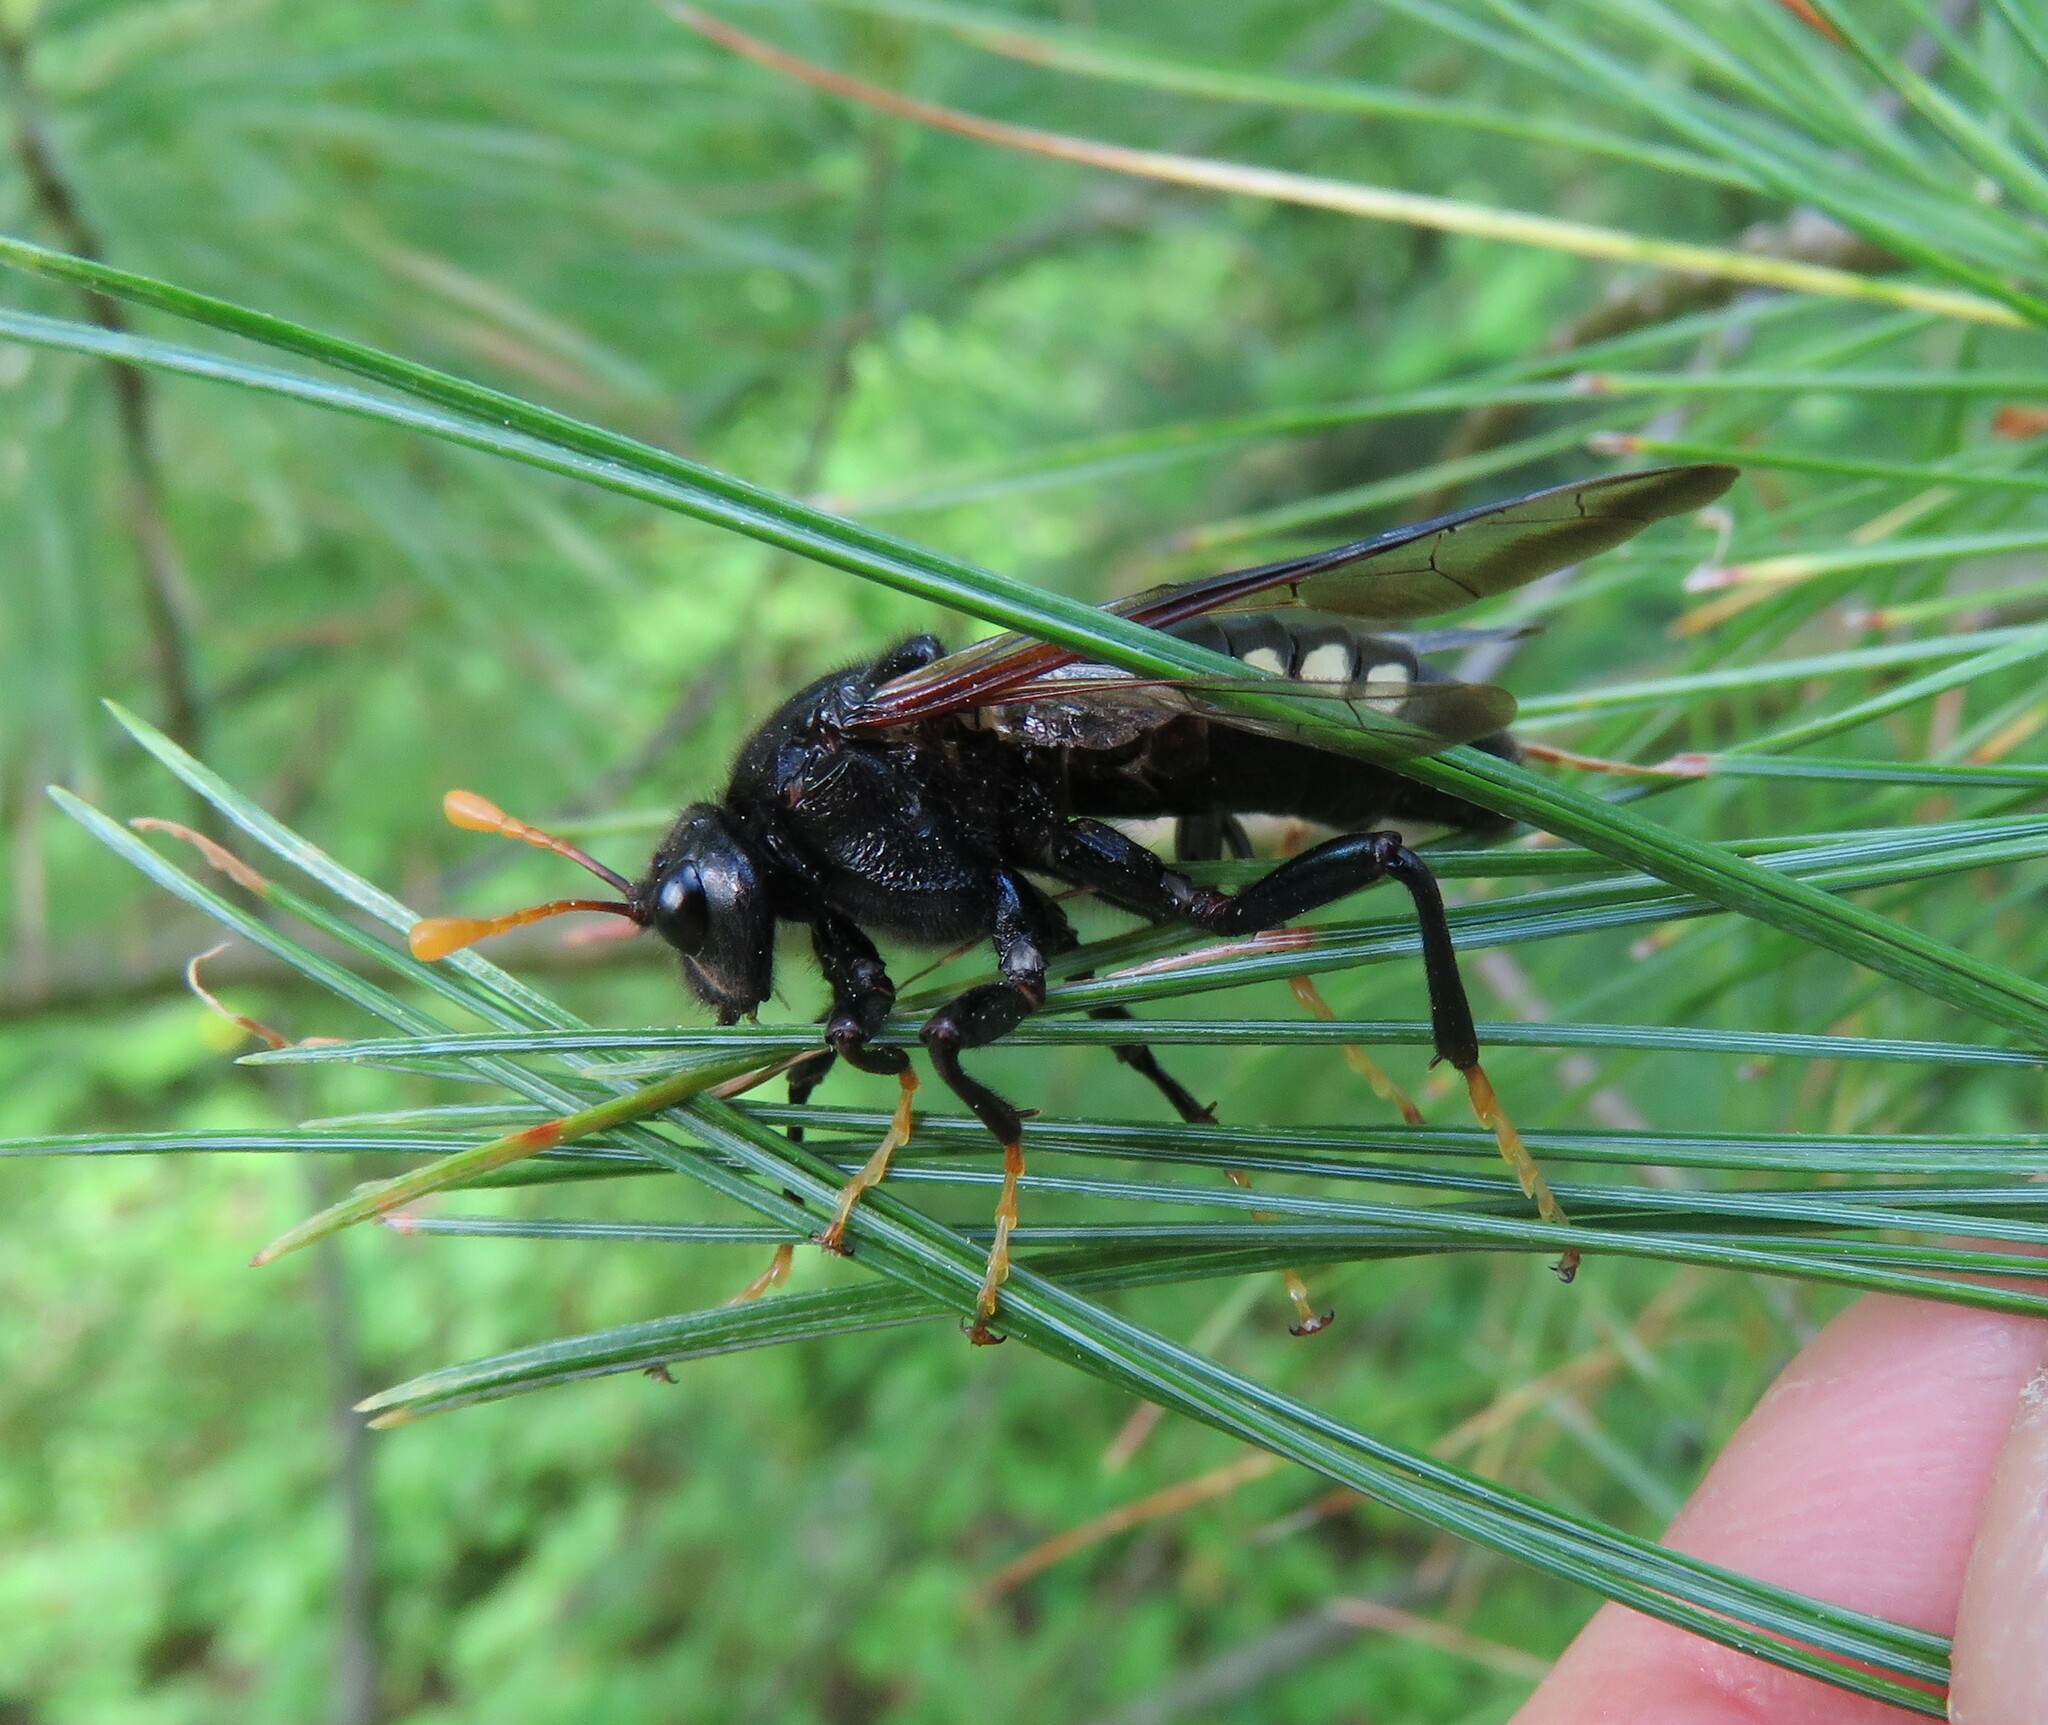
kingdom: Animalia
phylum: Arthropoda
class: Insecta
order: Hymenoptera
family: Cimbicidae
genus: Cimbex
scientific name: Cimbex americana
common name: Elm sawfly
